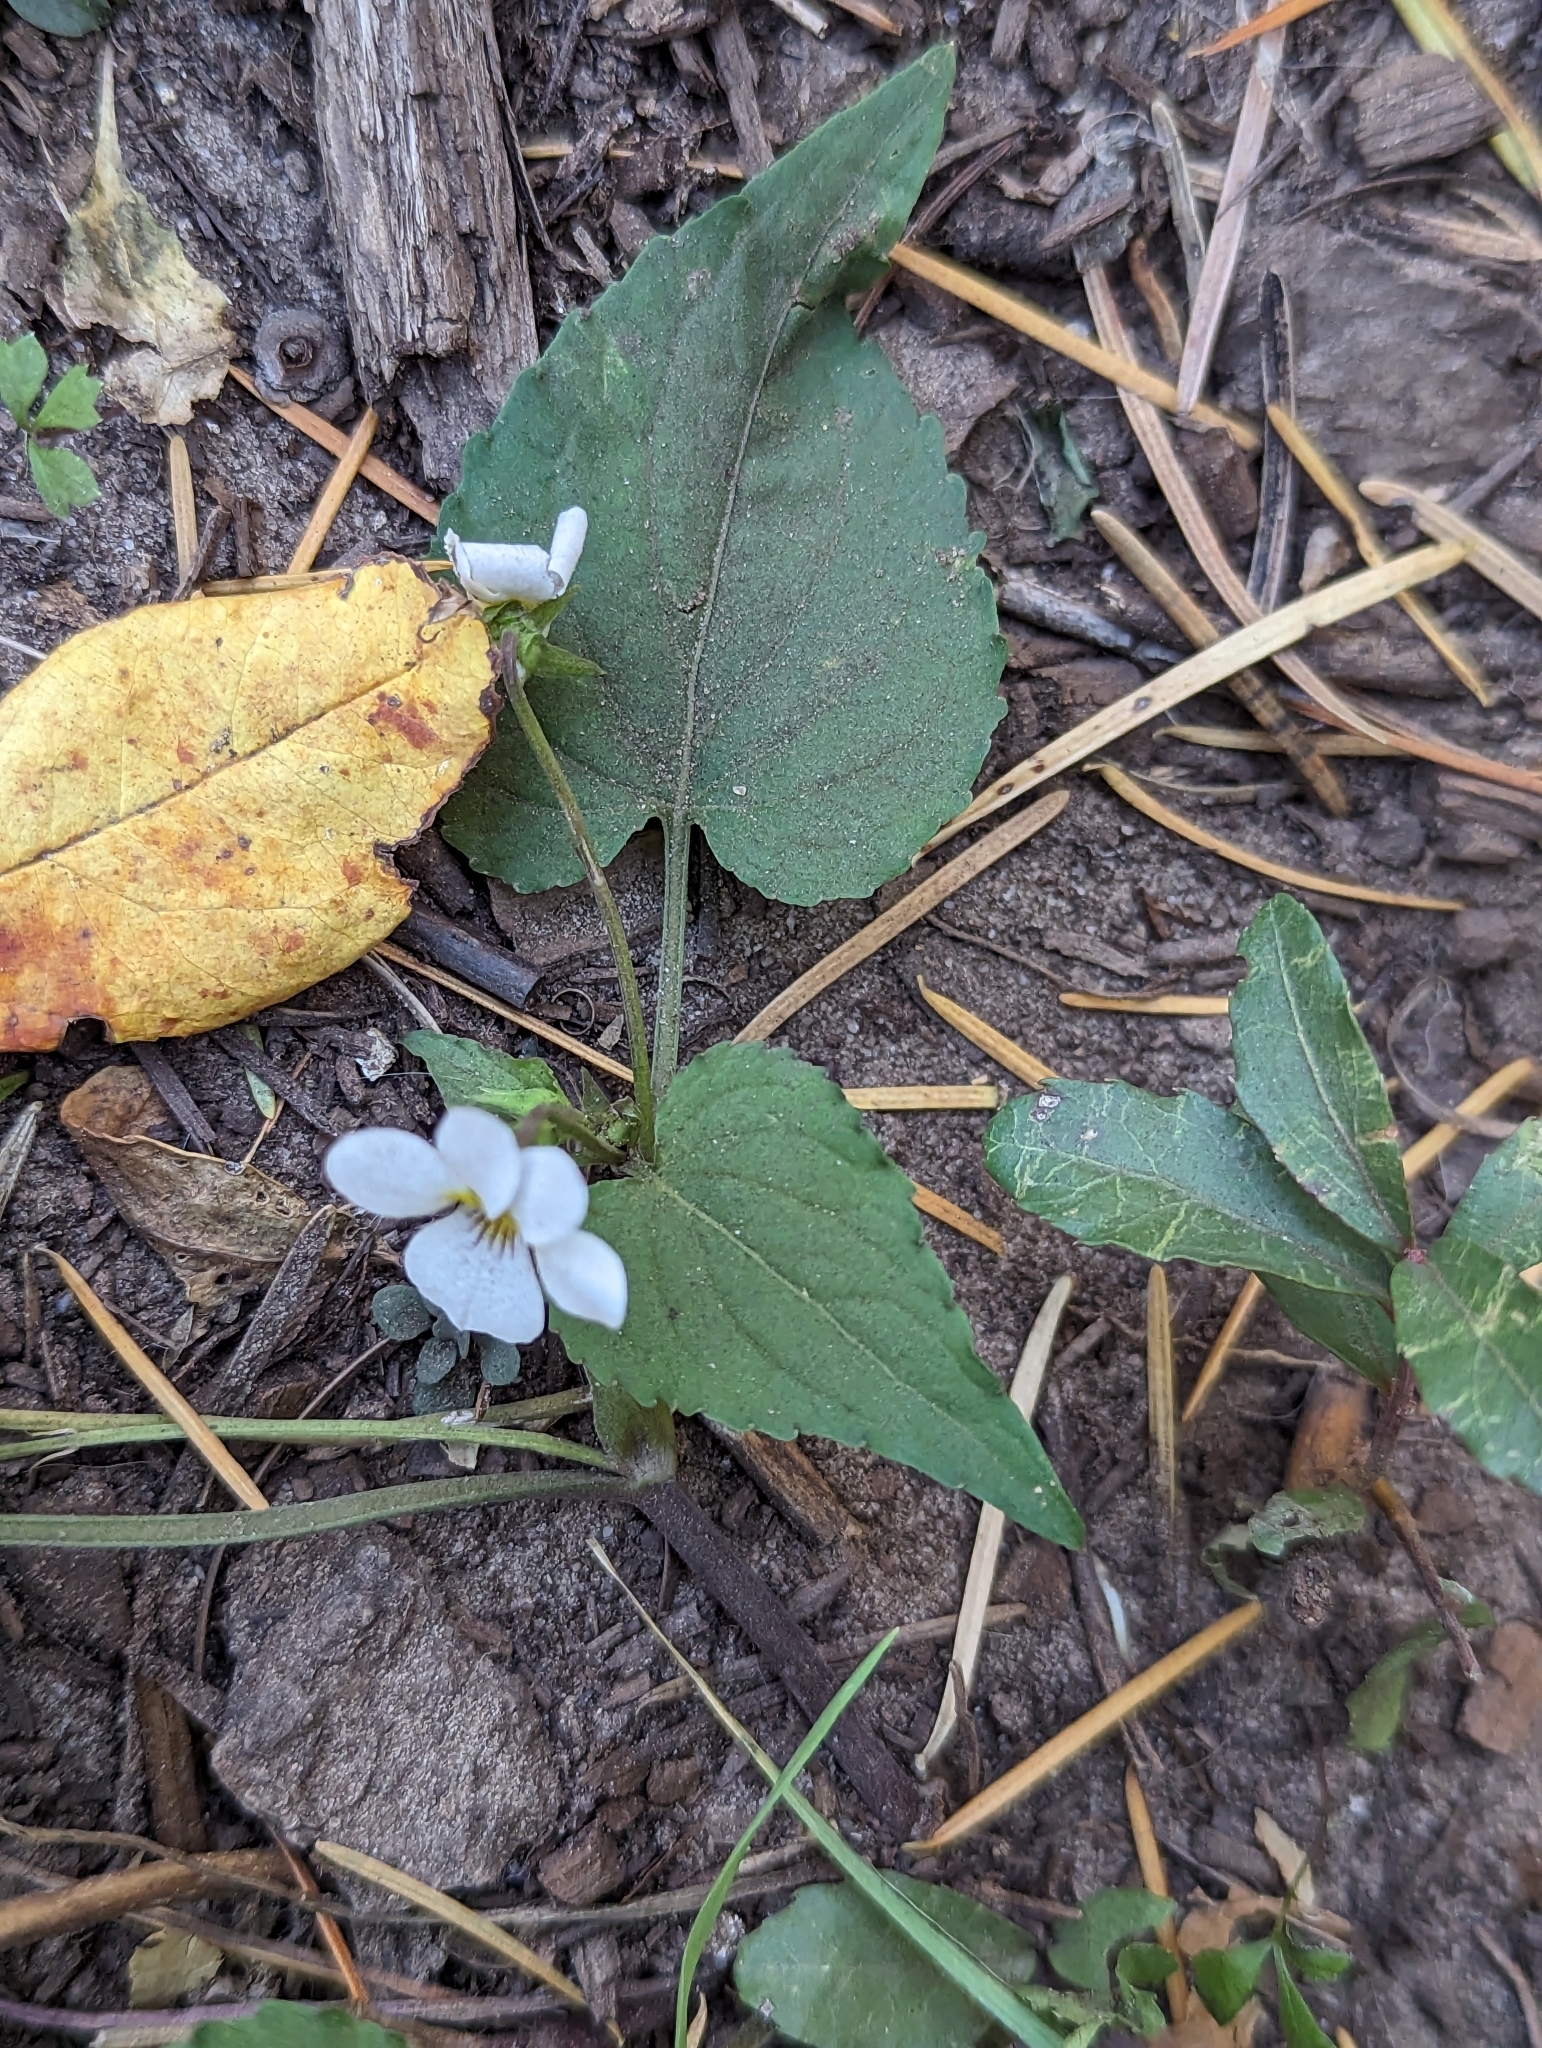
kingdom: Plantae
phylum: Tracheophyta
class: Magnoliopsida
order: Malpighiales
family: Violaceae
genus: Viola
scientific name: Viola canadensis
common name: Canada violet
